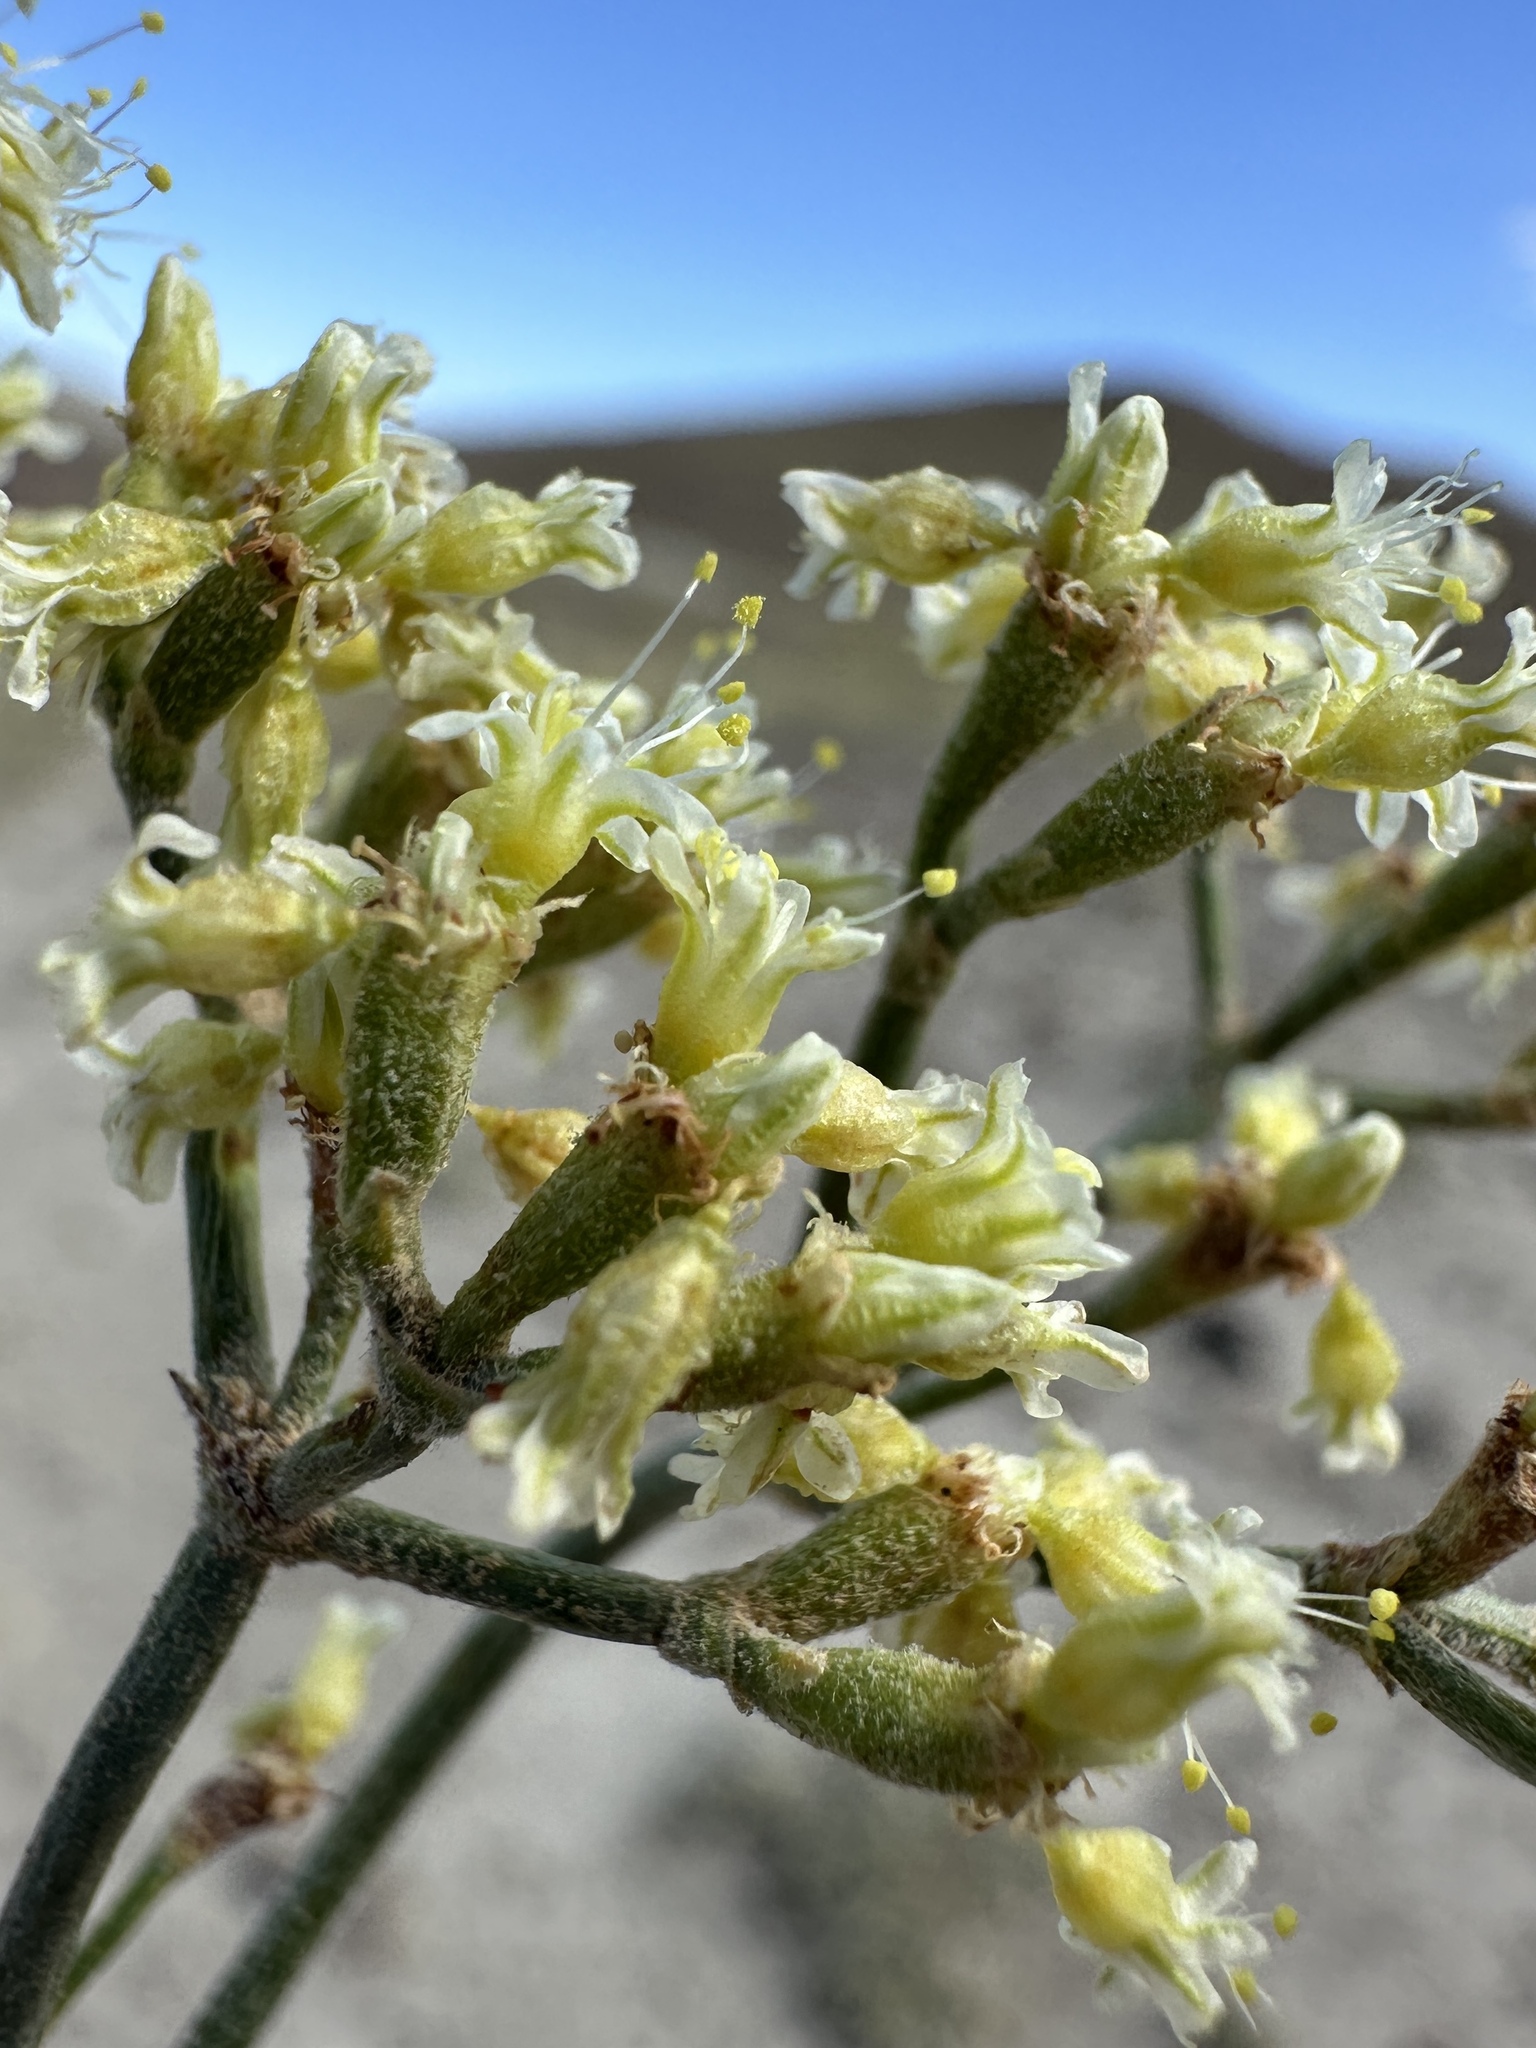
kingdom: Plantae
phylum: Tracheophyta
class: Magnoliopsida
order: Caryophyllales
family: Polygonaceae
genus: Eriogonum
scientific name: Eriogonum brevicaule
